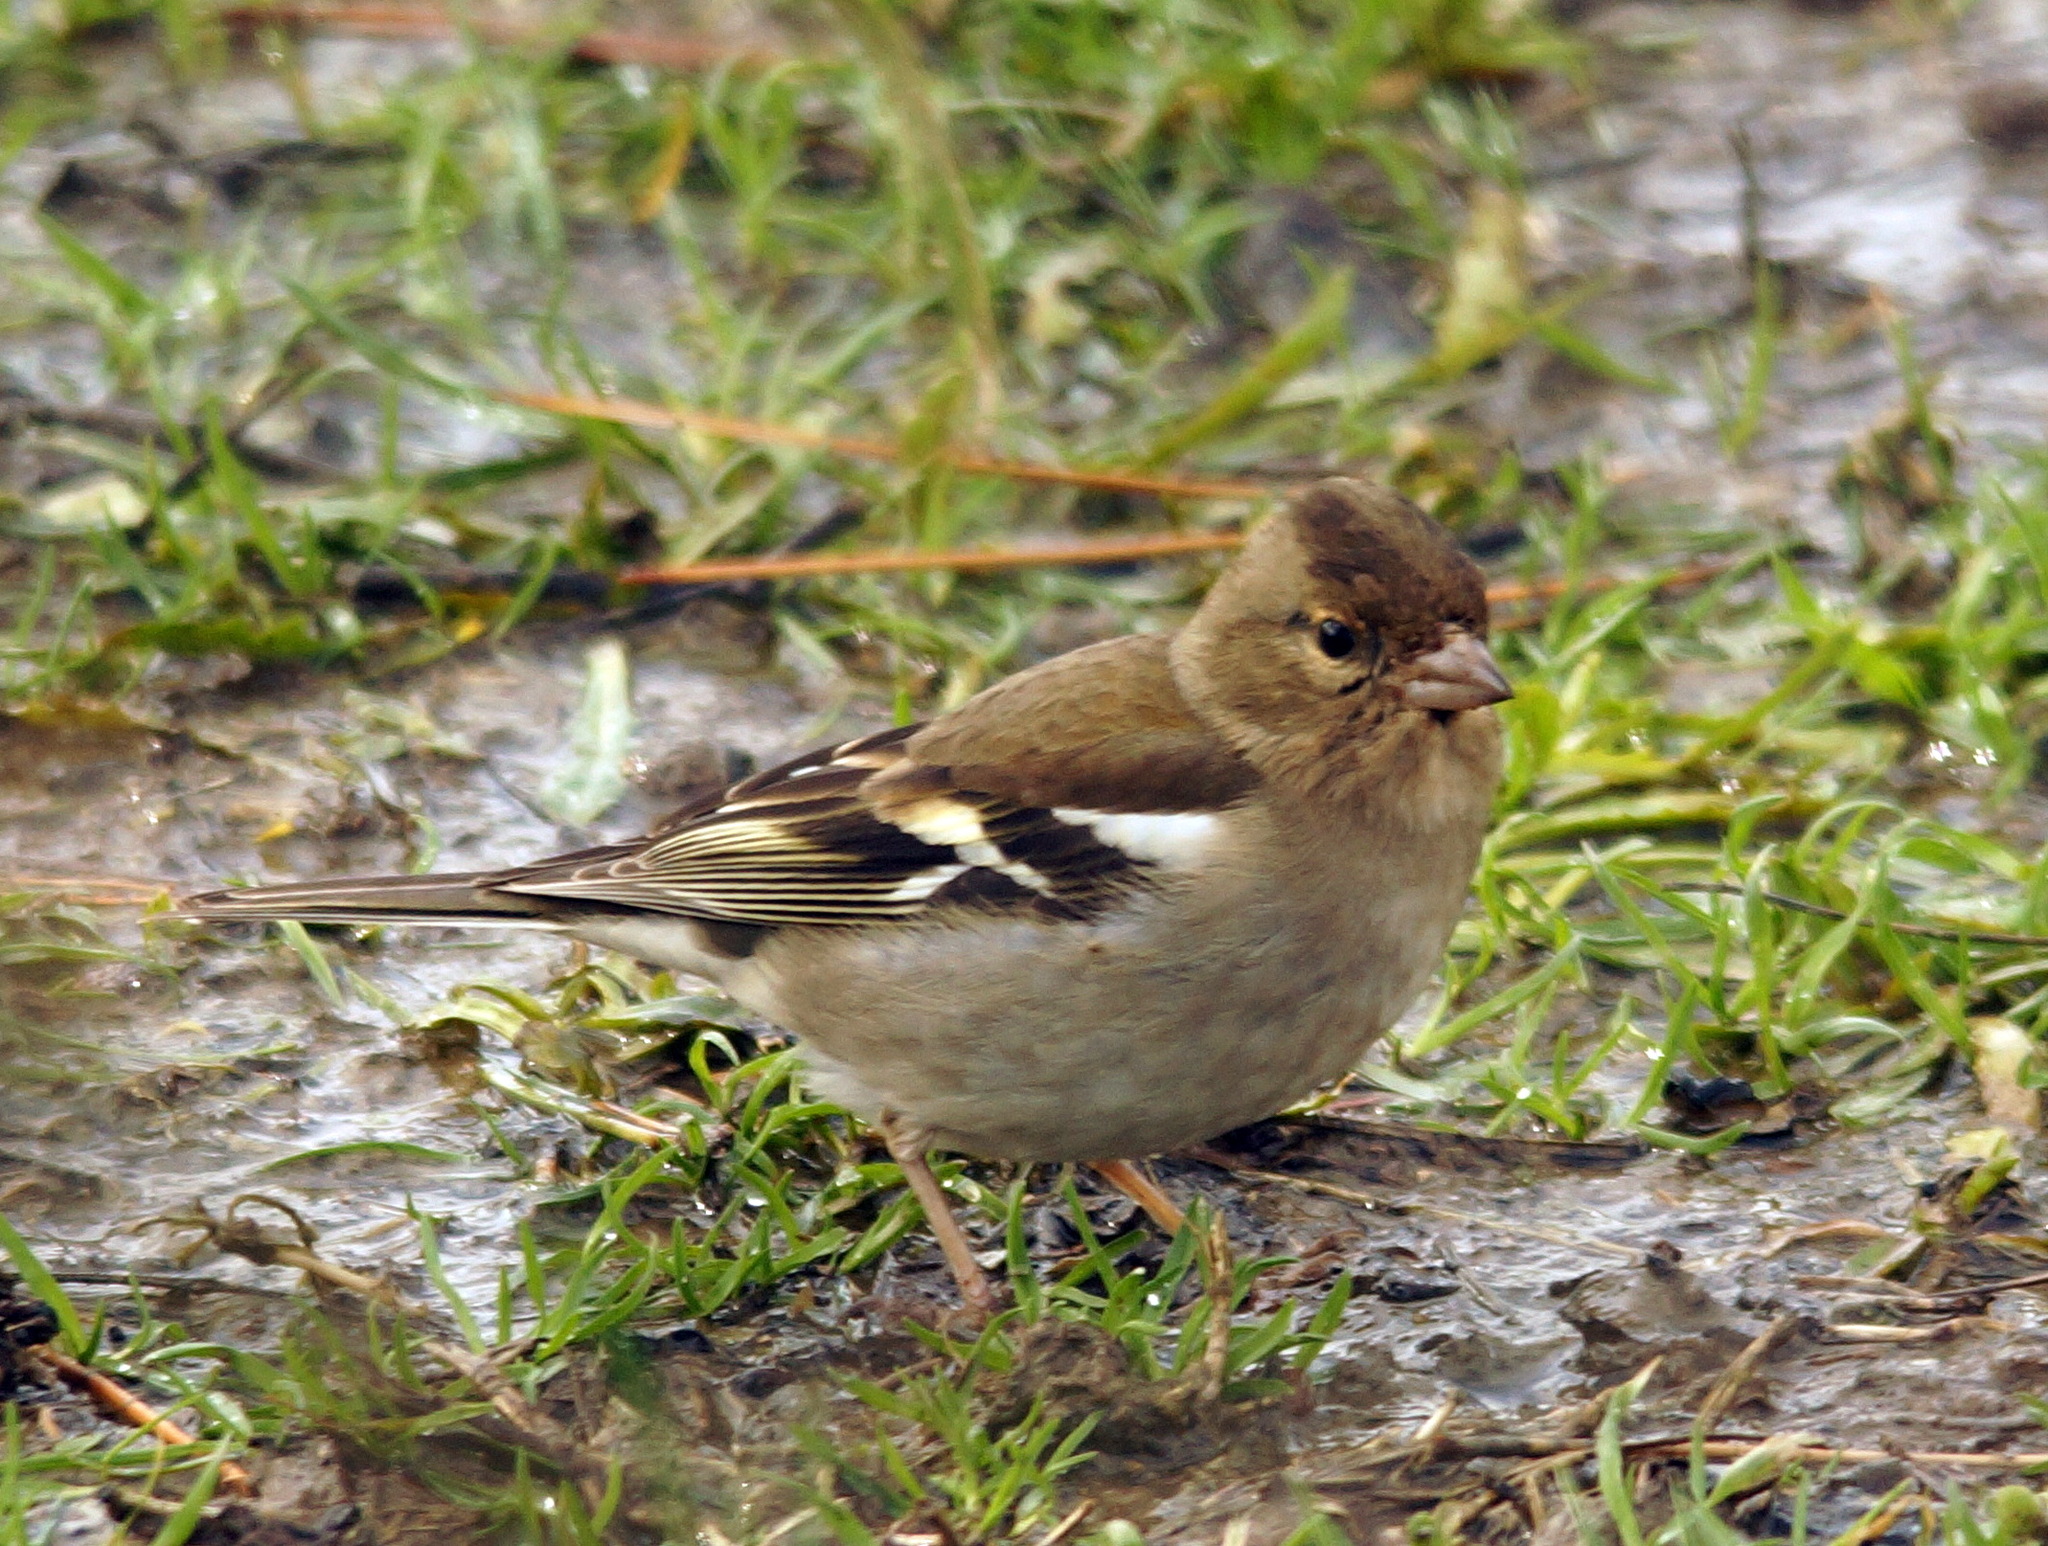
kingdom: Animalia
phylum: Chordata
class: Aves
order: Passeriformes
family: Fringillidae
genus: Fringilla
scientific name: Fringilla coelebs
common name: Common chaffinch
